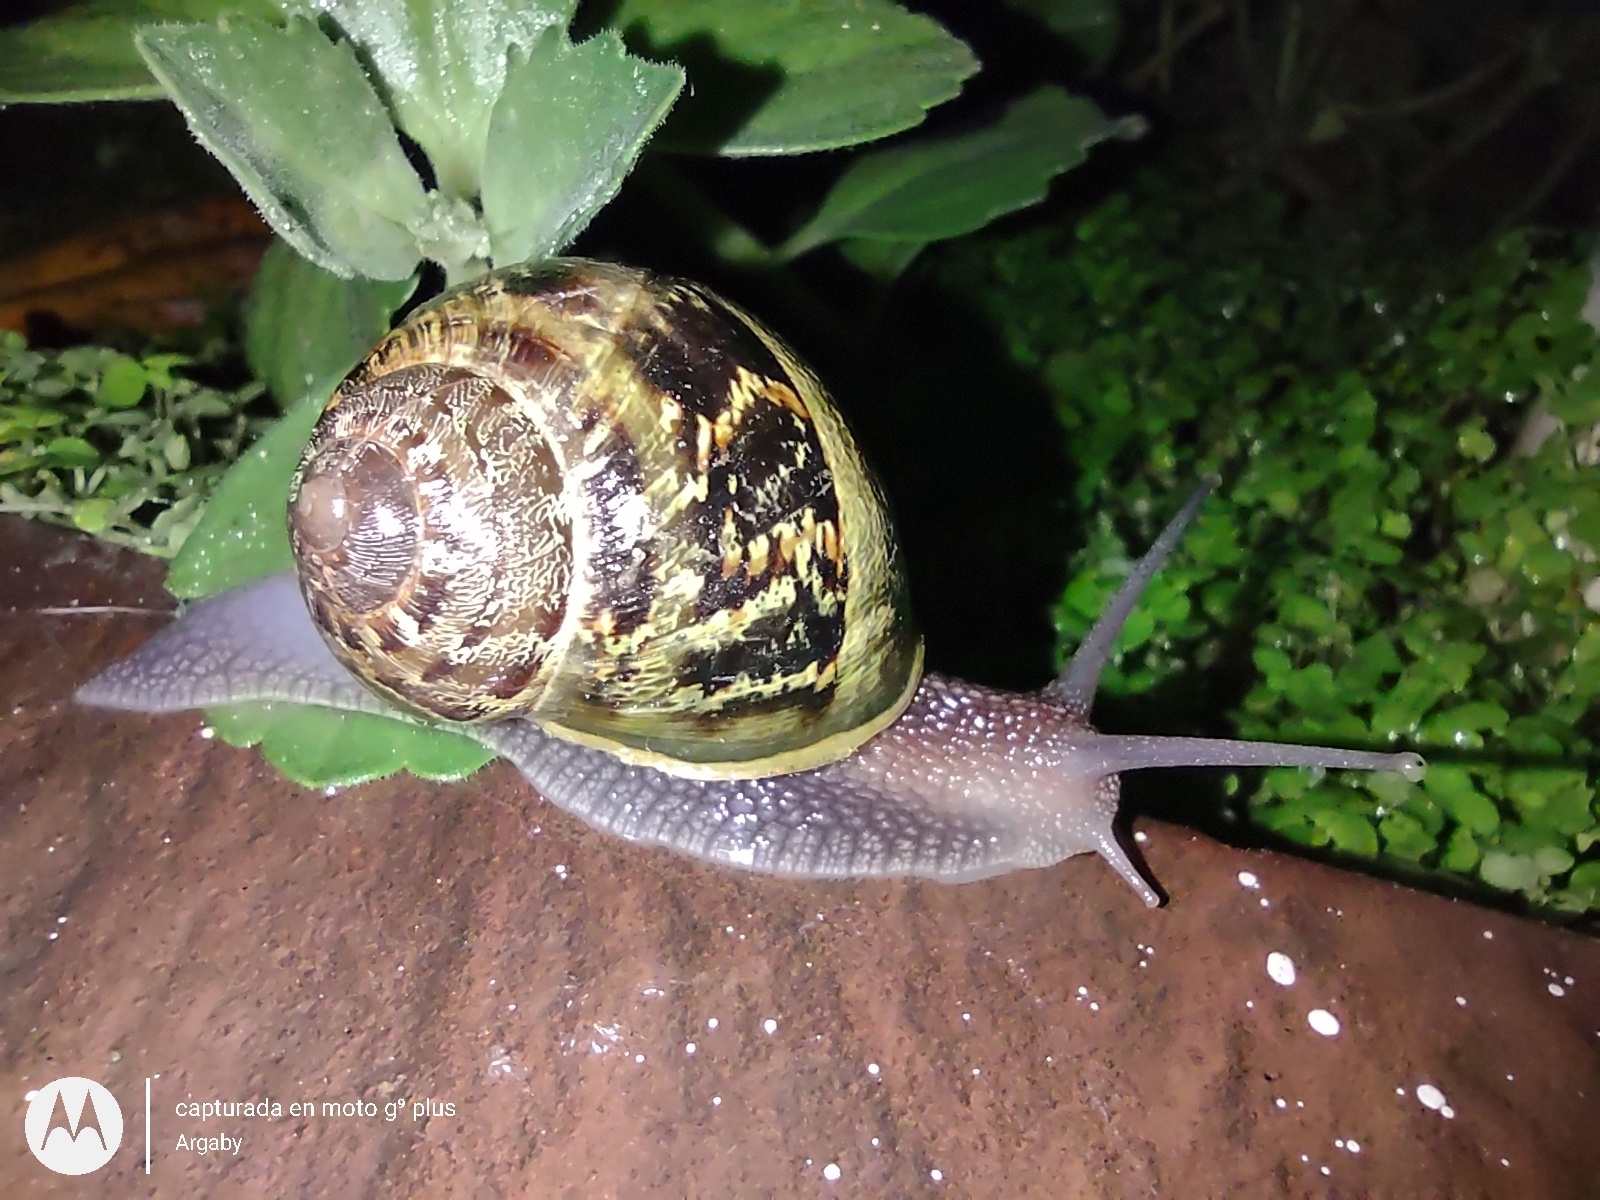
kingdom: Animalia
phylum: Mollusca
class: Gastropoda
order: Stylommatophora
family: Helicidae
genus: Cornu
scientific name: Cornu aspersum
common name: Brown garden snail
